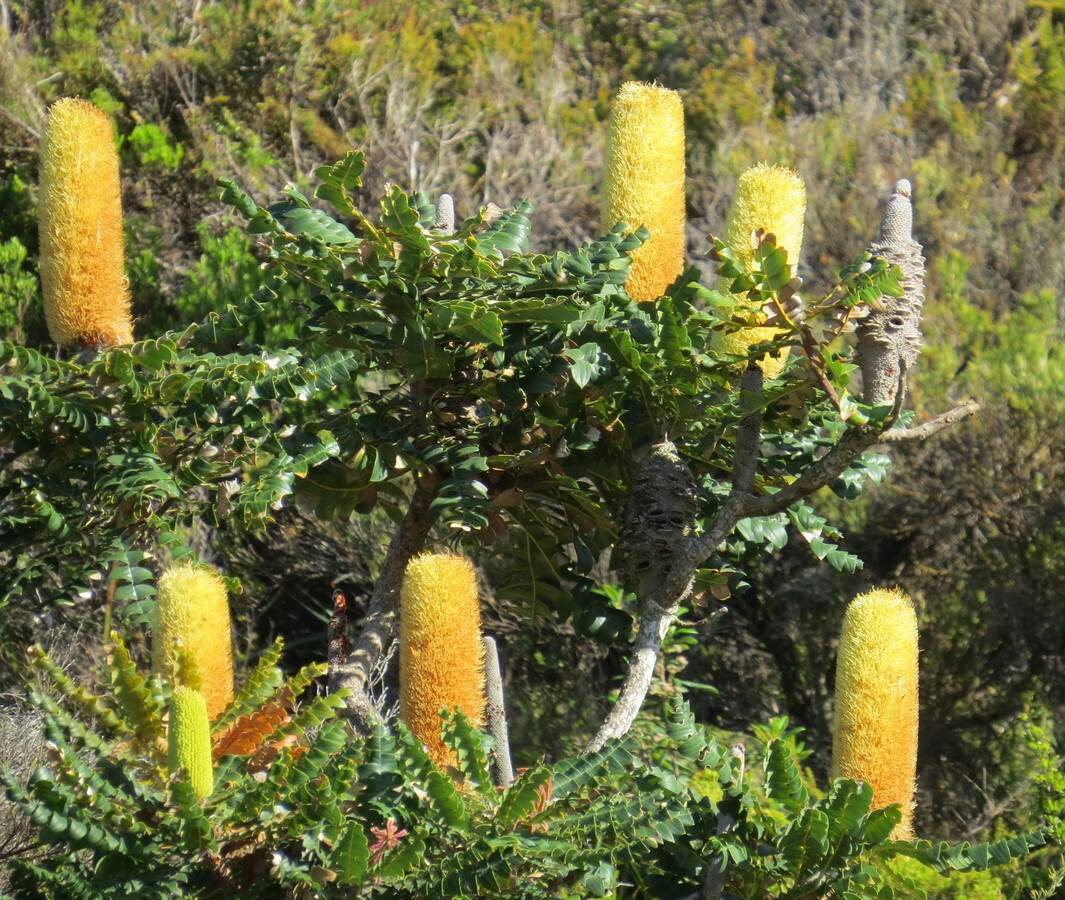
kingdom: Plantae
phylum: Tracheophyta
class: Magnoliopsida
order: Proteales
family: Proteaceae
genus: Banksia
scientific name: Banksia grandis
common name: Giant banksia
